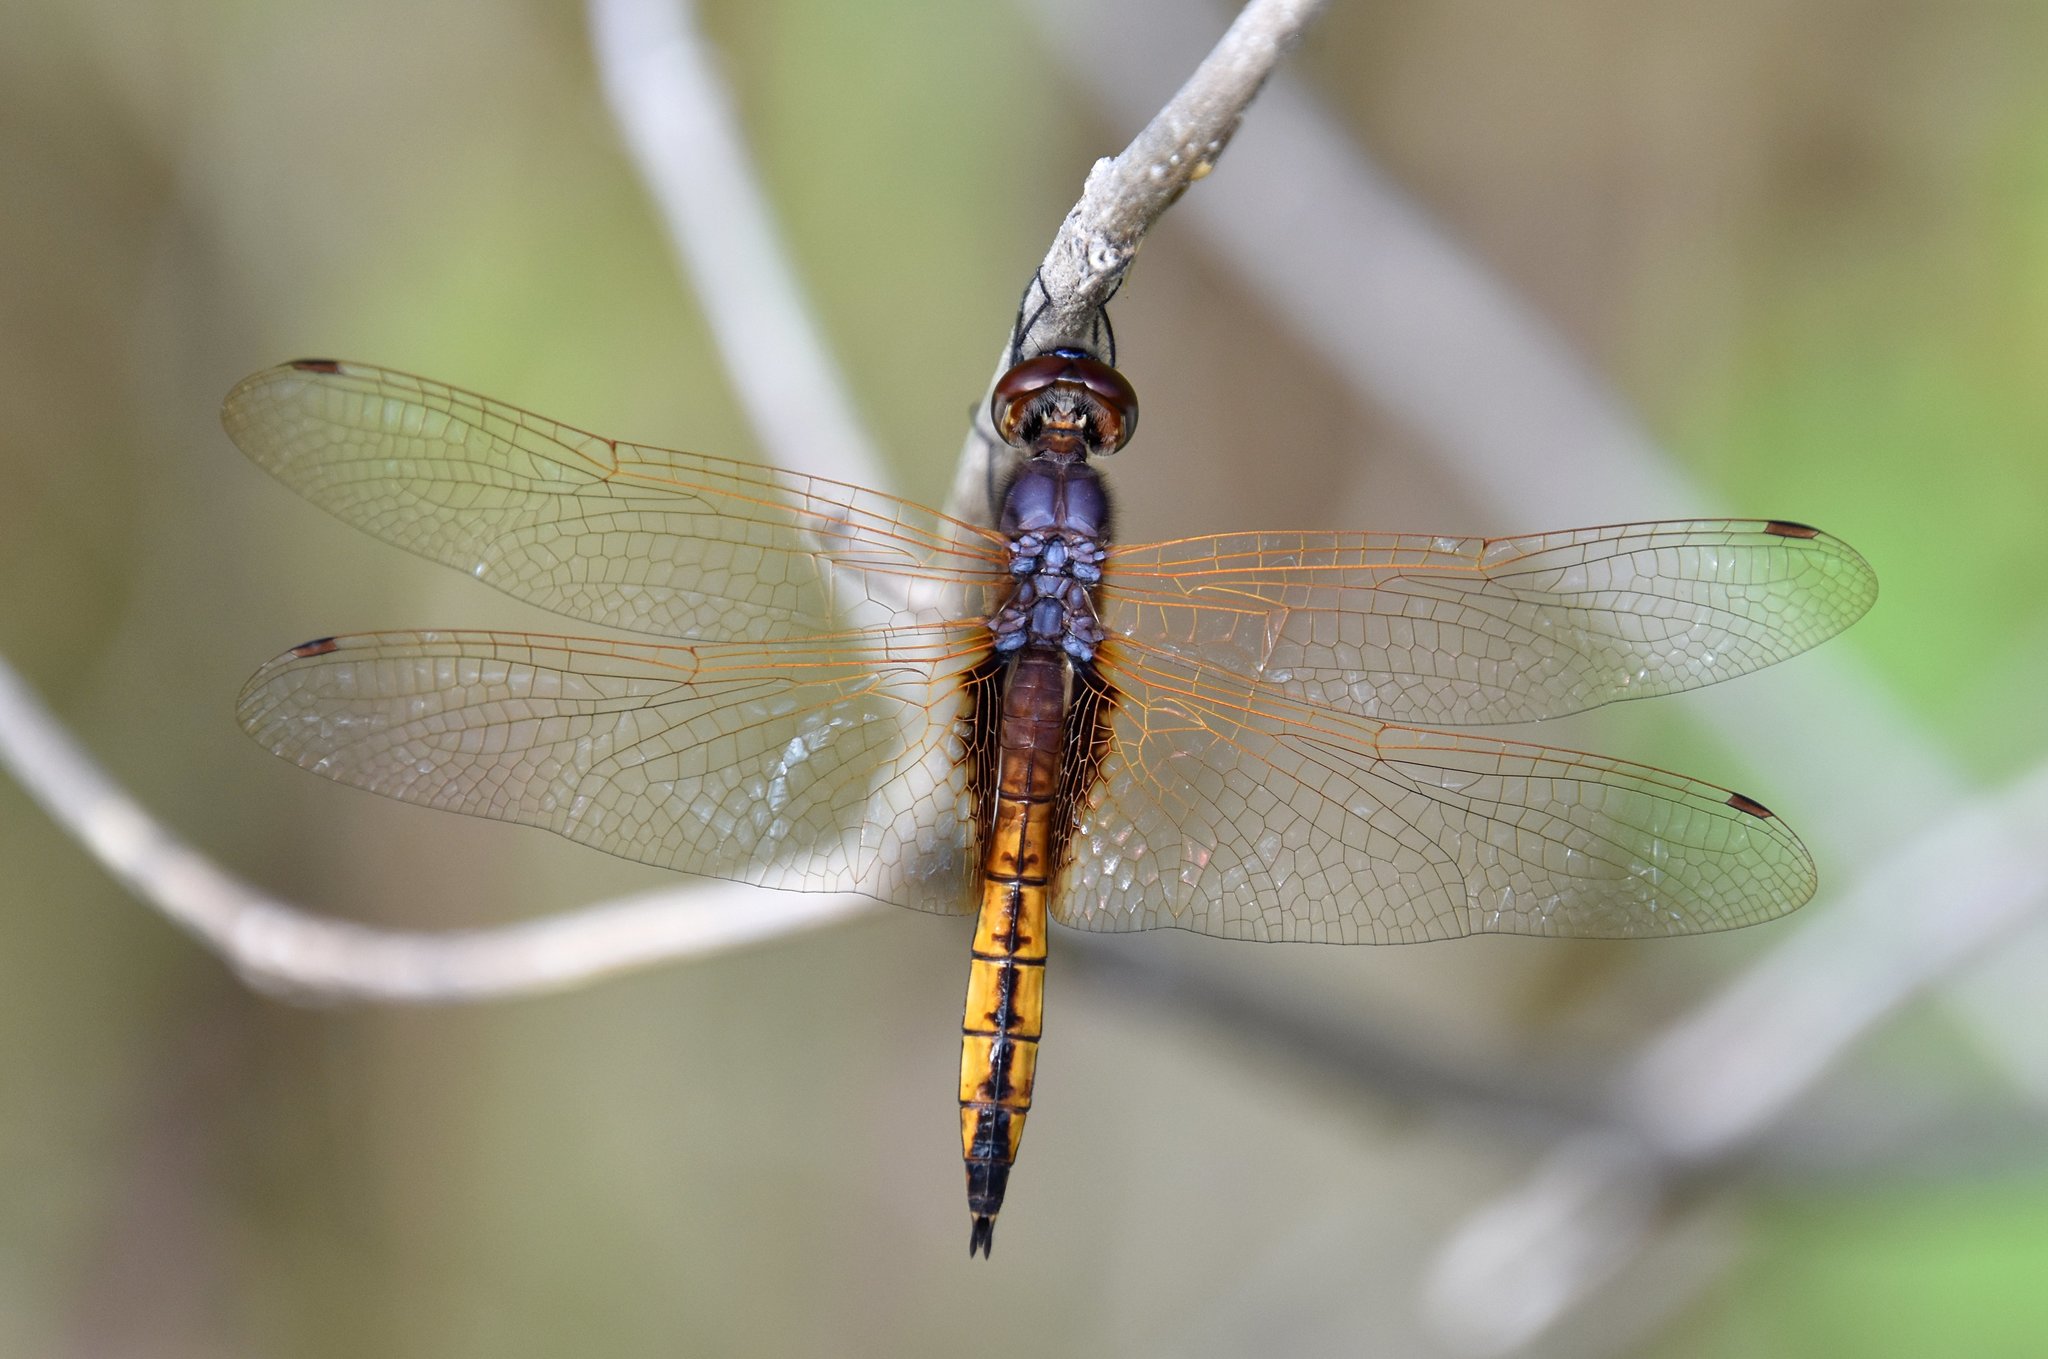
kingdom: Animalia
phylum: Arthropoda
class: Insecta
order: Odonata
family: Libellulidae
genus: Miathyria
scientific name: Miathyria marcella
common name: Hyacinth glider
